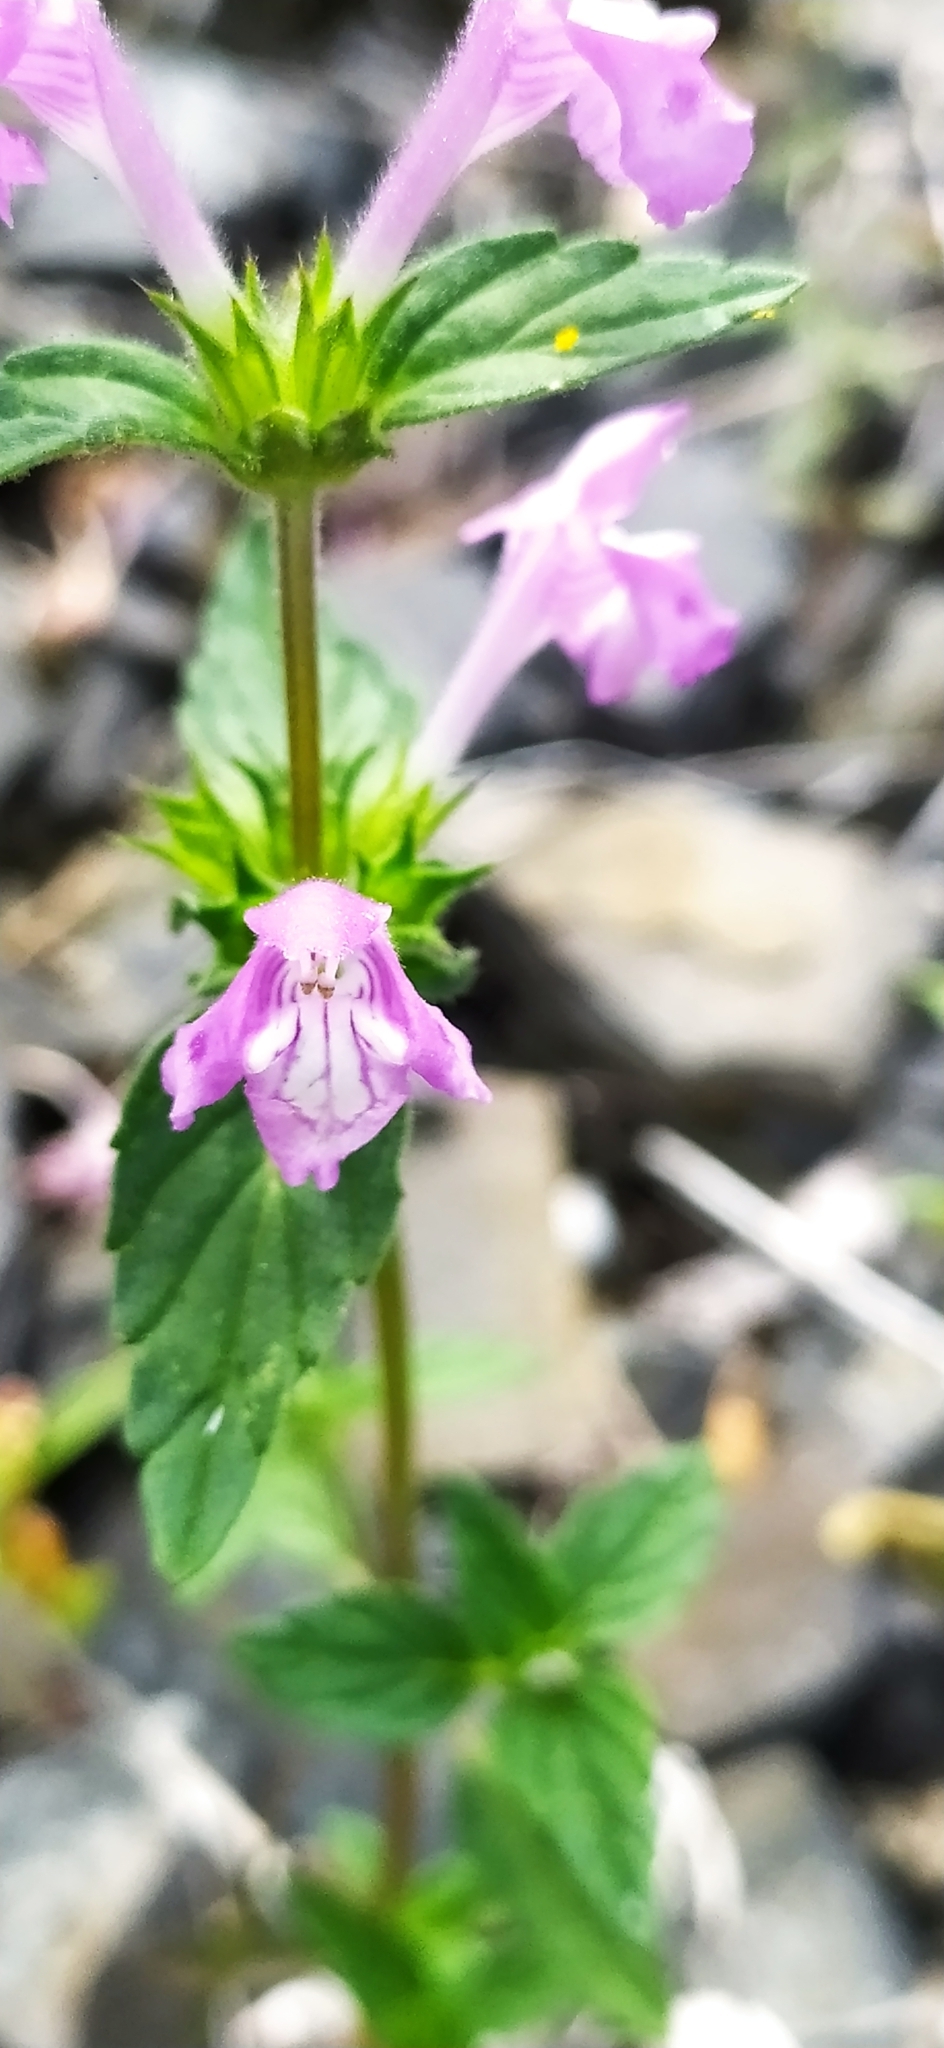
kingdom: Plantae
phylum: Tracheophyta
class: Magnoliopsida
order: Lamiales
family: Lamiaceae
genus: Galeopsis
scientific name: Galeopsis ladanum
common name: Broad-leaved hemp-nettle
